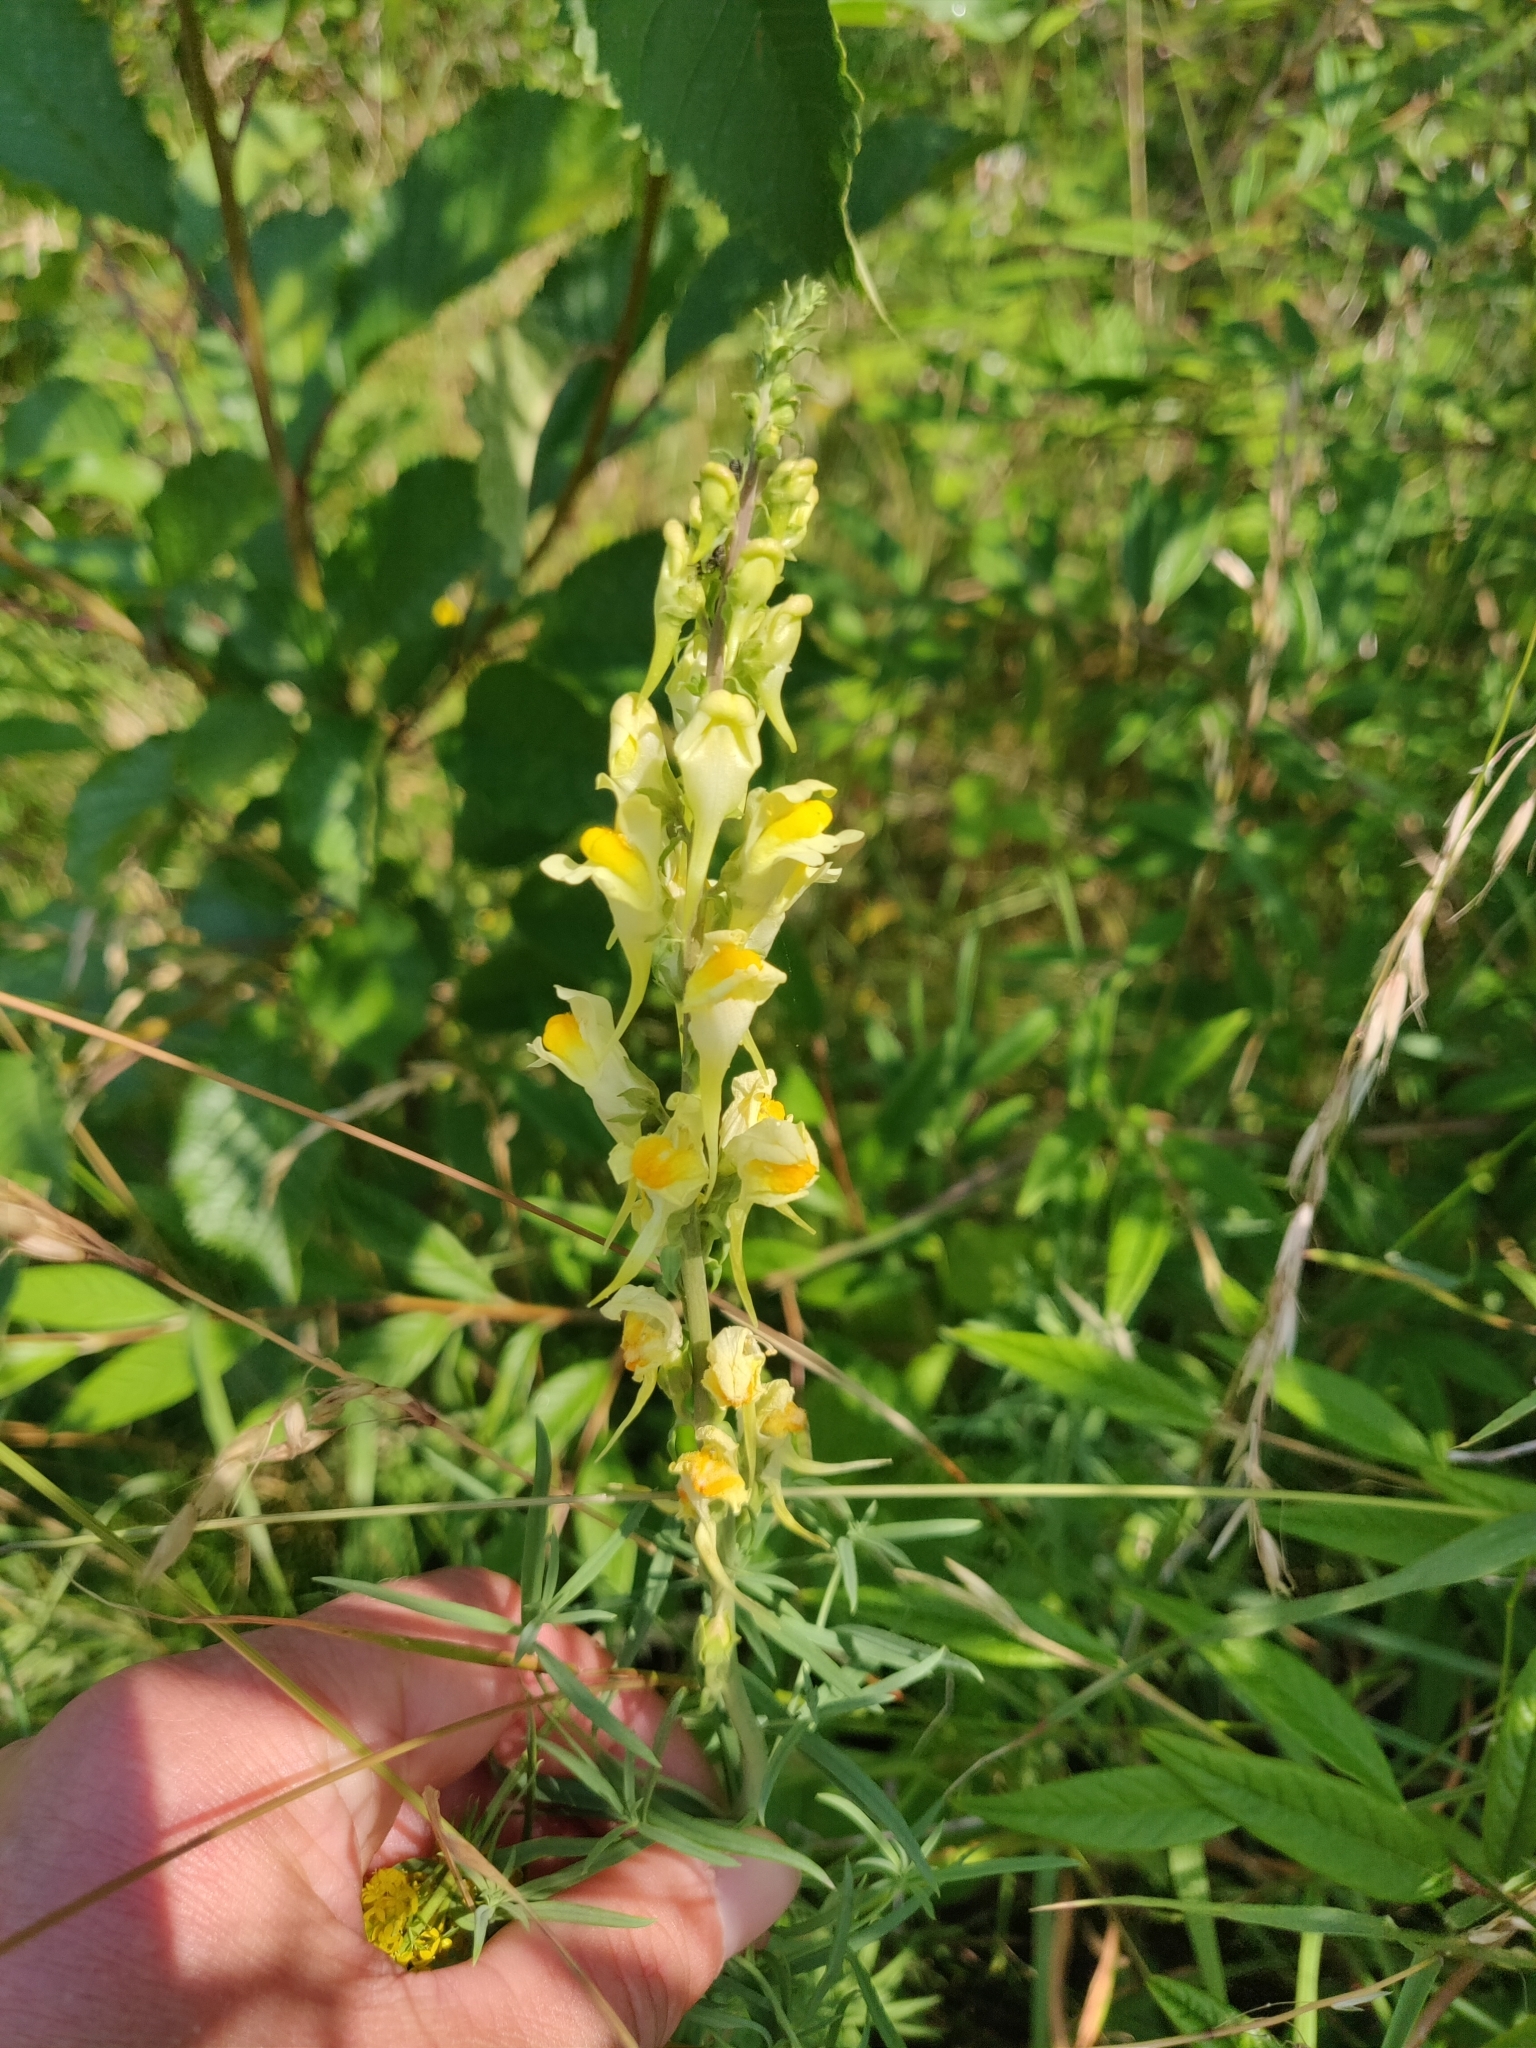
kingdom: Plantae
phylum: Tracheophyta
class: Magnoliopsida
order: Lamiales
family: Plantaginaceae
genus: Linaria
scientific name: Linaria vulgaris
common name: Butter and eggs
